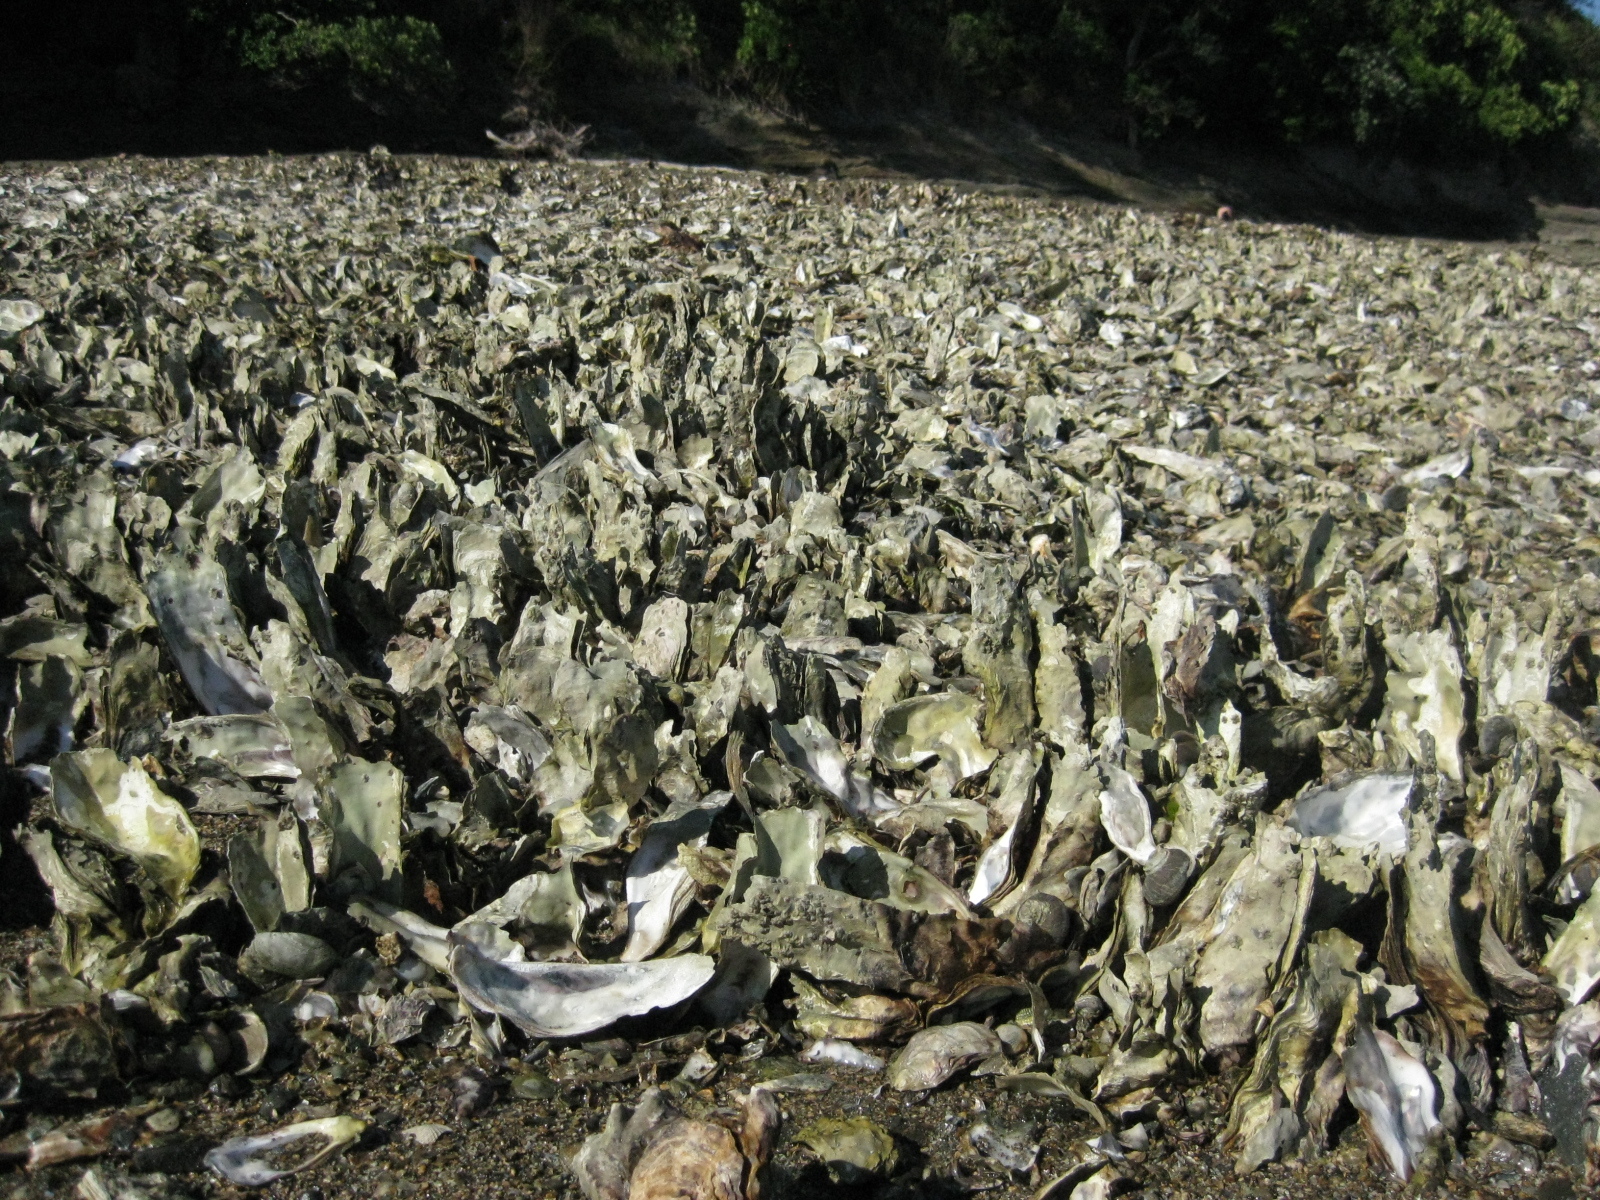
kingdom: Animalia
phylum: Mollusca
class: Bivalvia
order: Ostreida
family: Ostreidae
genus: Magallana
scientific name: Magallana gigas
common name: Pacific oyster
